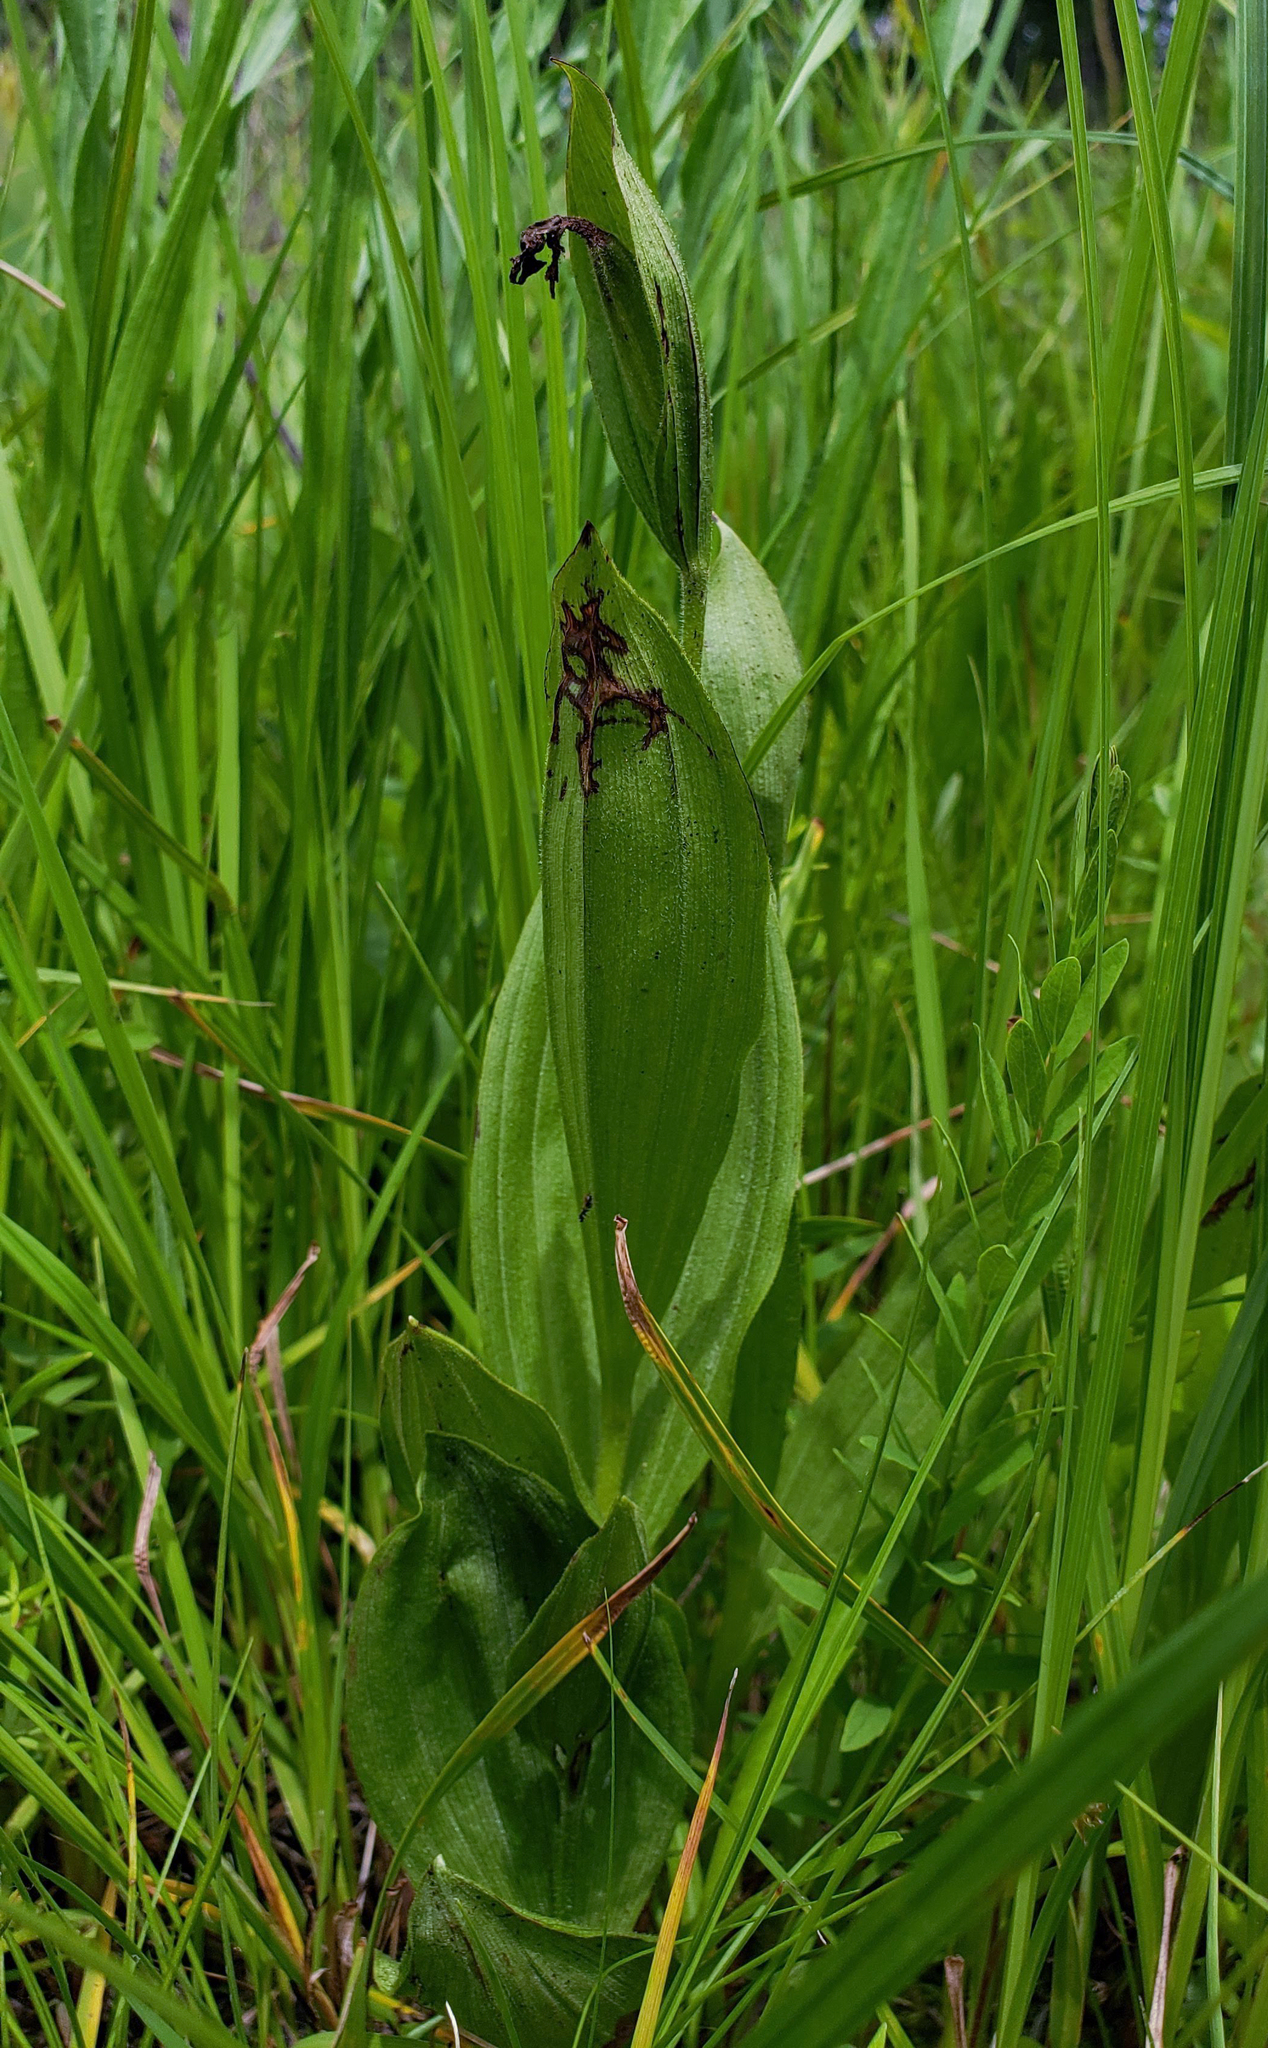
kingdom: Plantae
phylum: Tracheophyta
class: Liliopsida
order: Asparagales
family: Orchidaceae
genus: Cypripedium
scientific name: Cypripedium candidum
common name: White lady's-slipper
